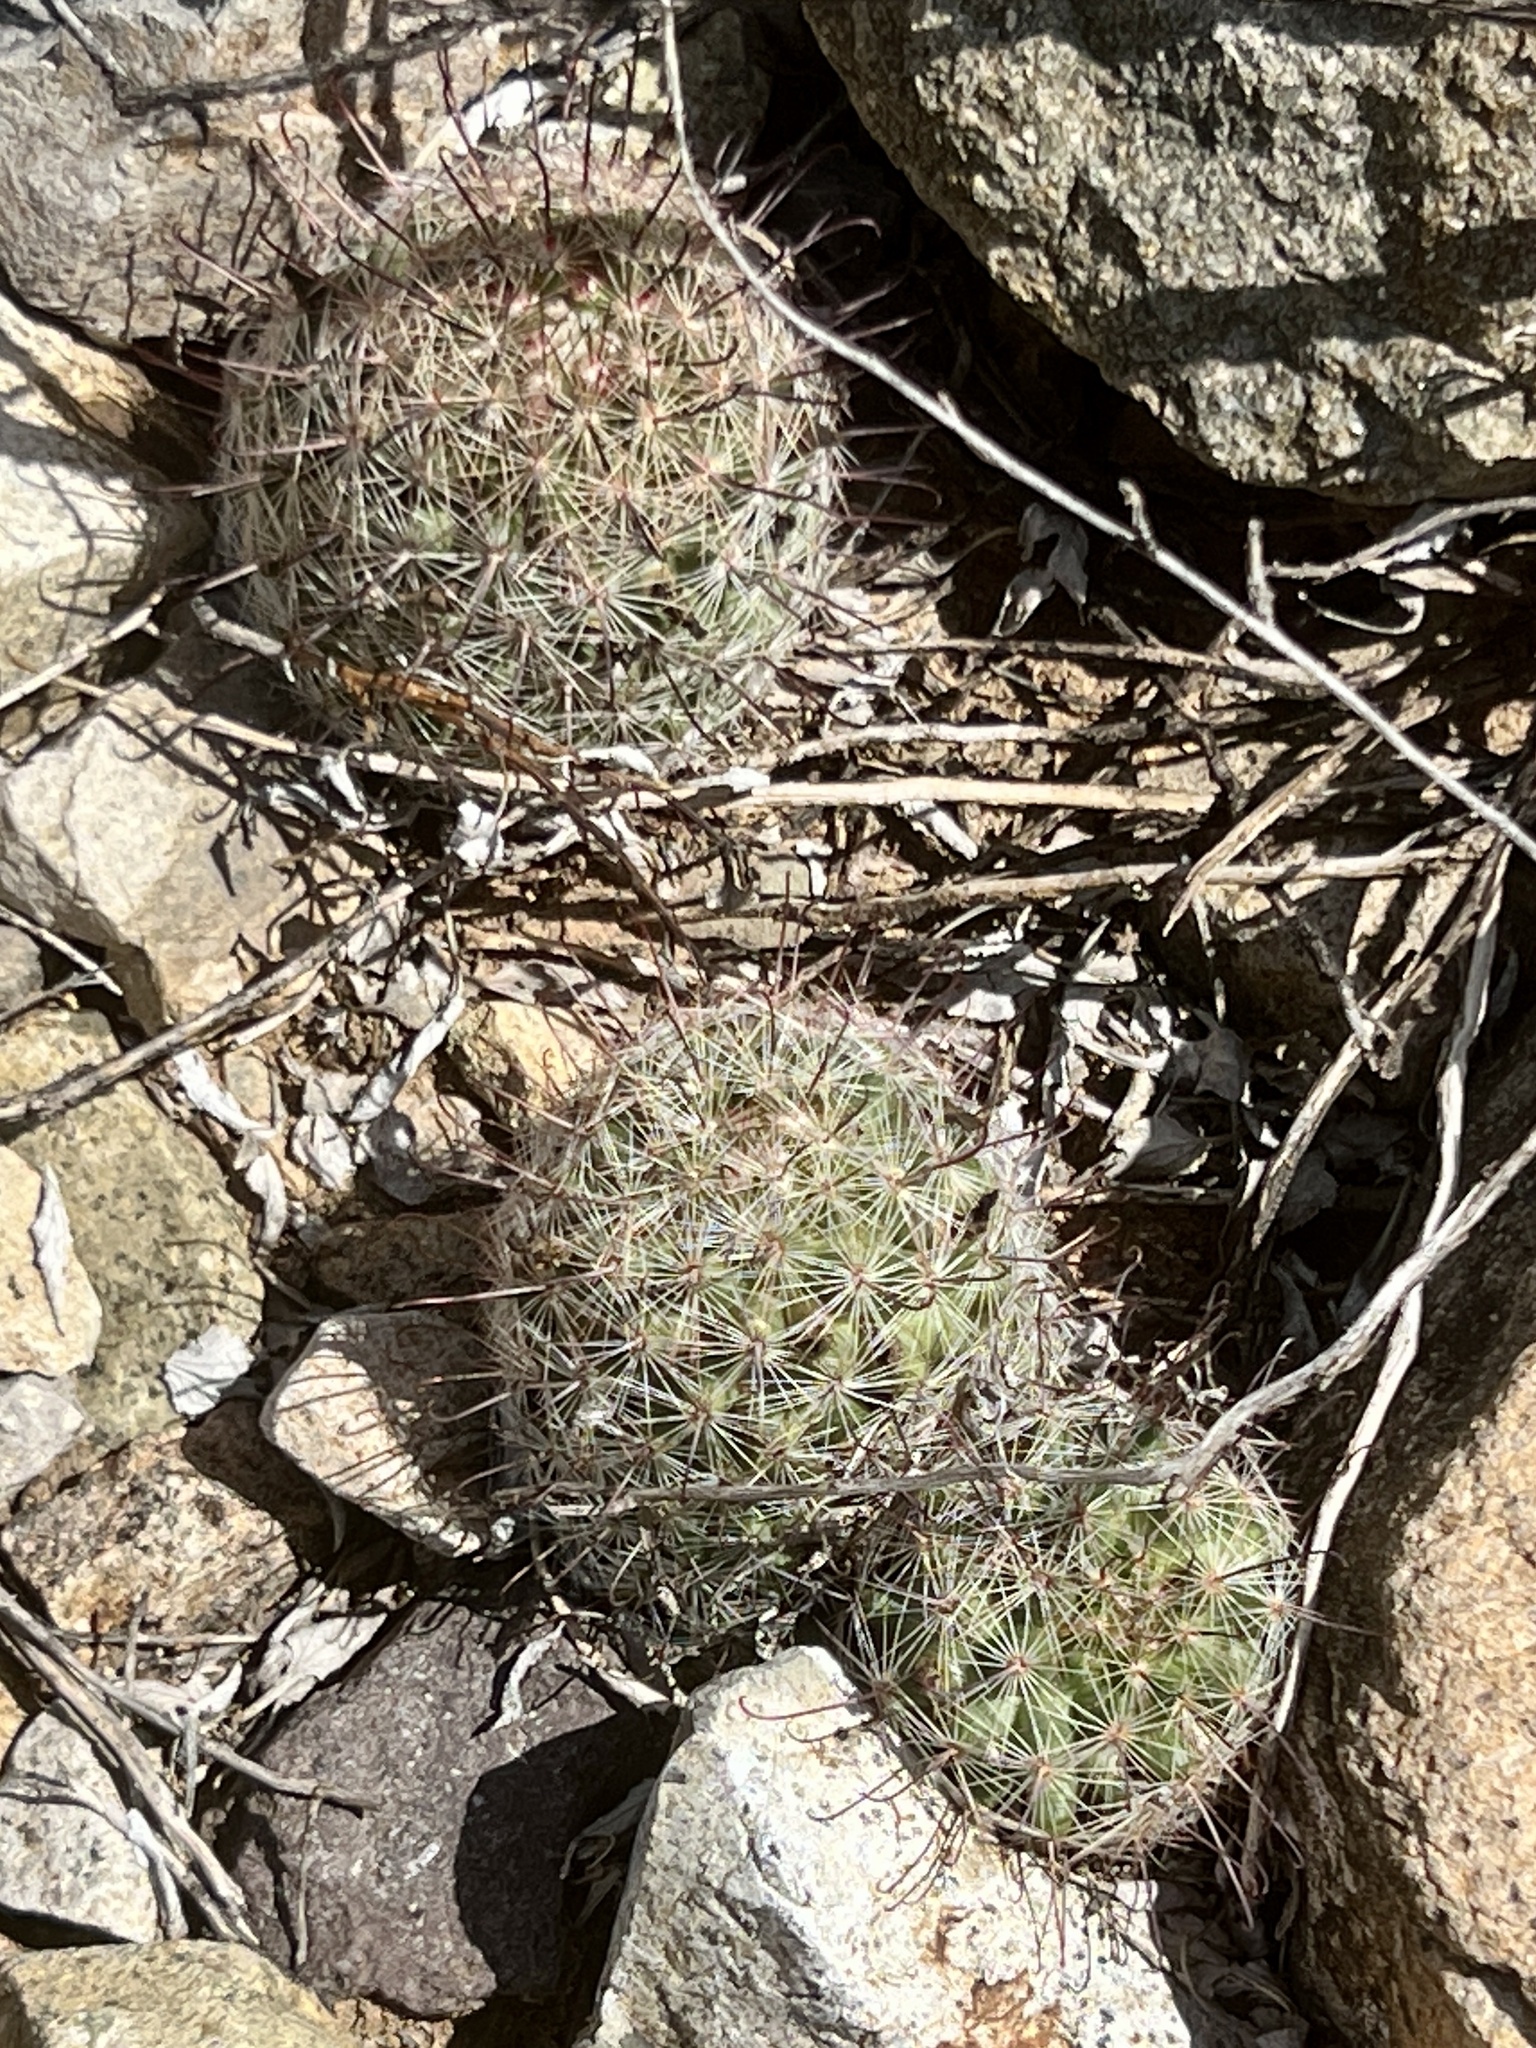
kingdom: Plantae
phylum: Tracheophyta
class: Magnoliopsida
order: Caryophyllales
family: Cactaceae
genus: Cochemiea
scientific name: Cochemiea grahamii
